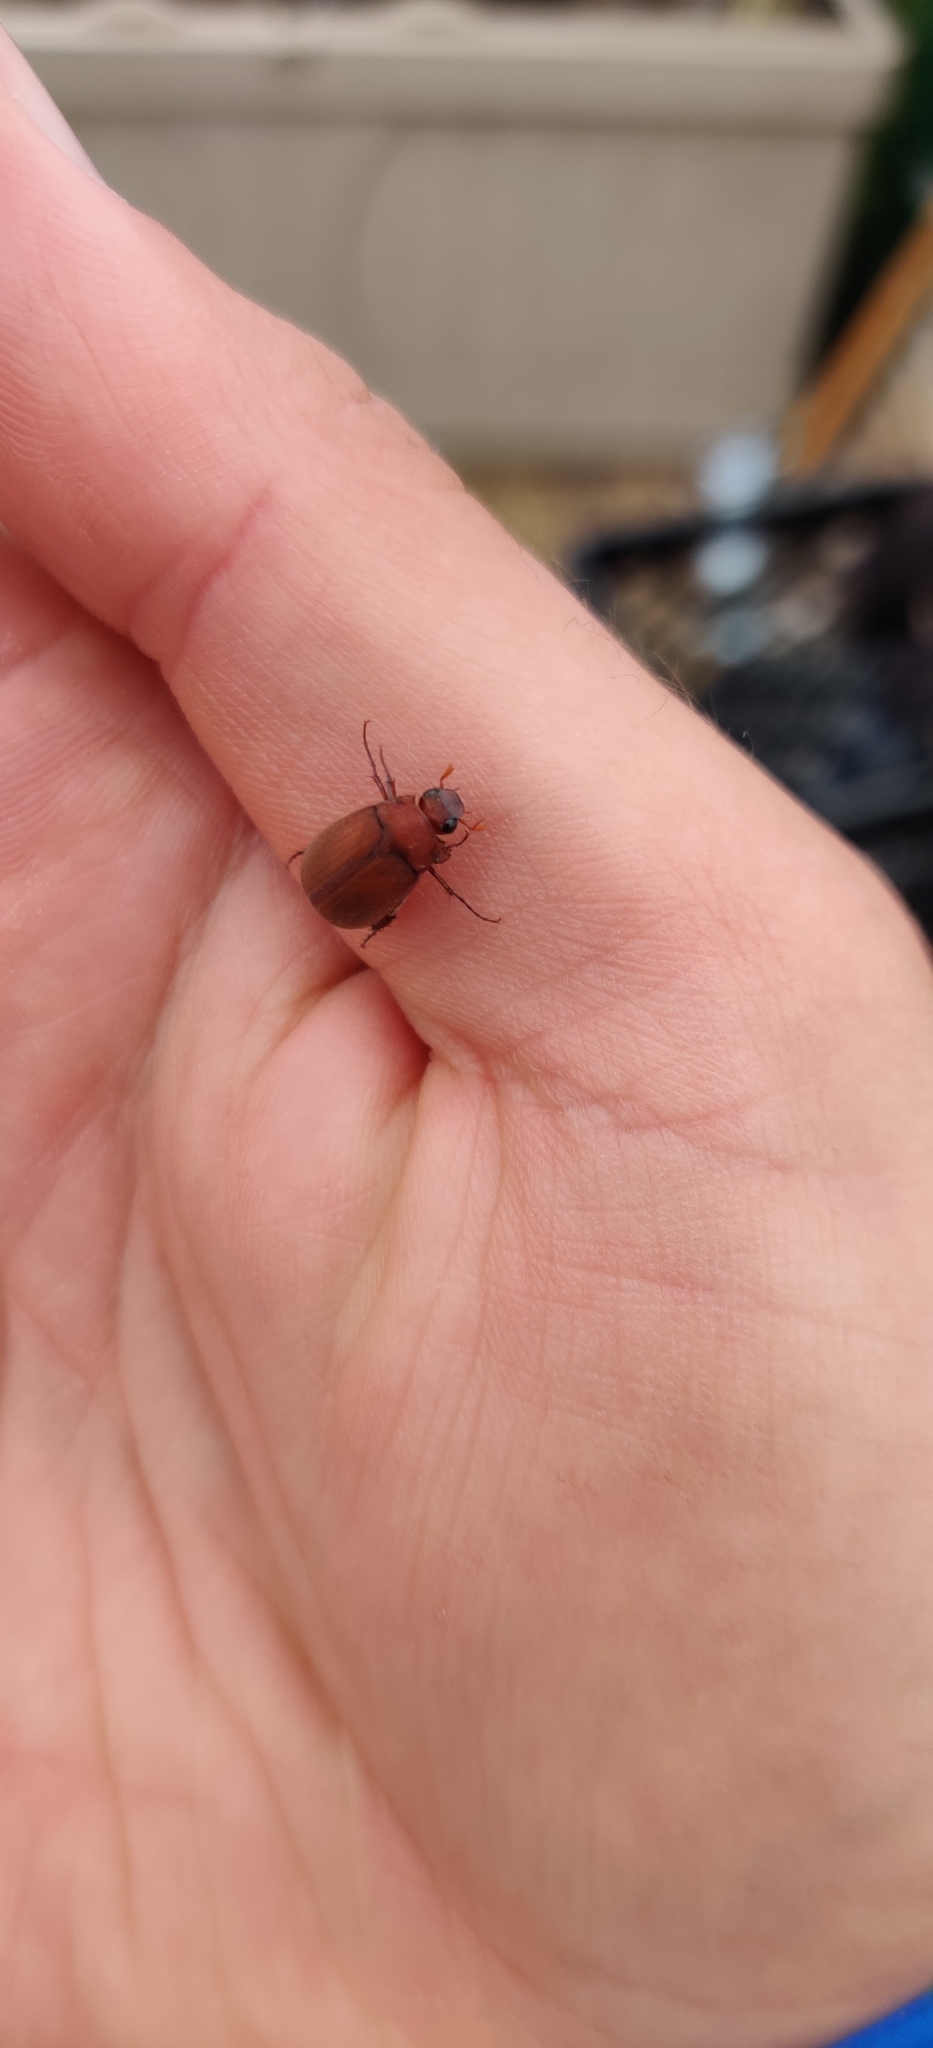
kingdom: Animalia
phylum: Arthropoda
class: Insecta
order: Coleoptera
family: Scarabaeidae
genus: Maladera
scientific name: Maladera formosae
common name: Asiatic garden beetle
